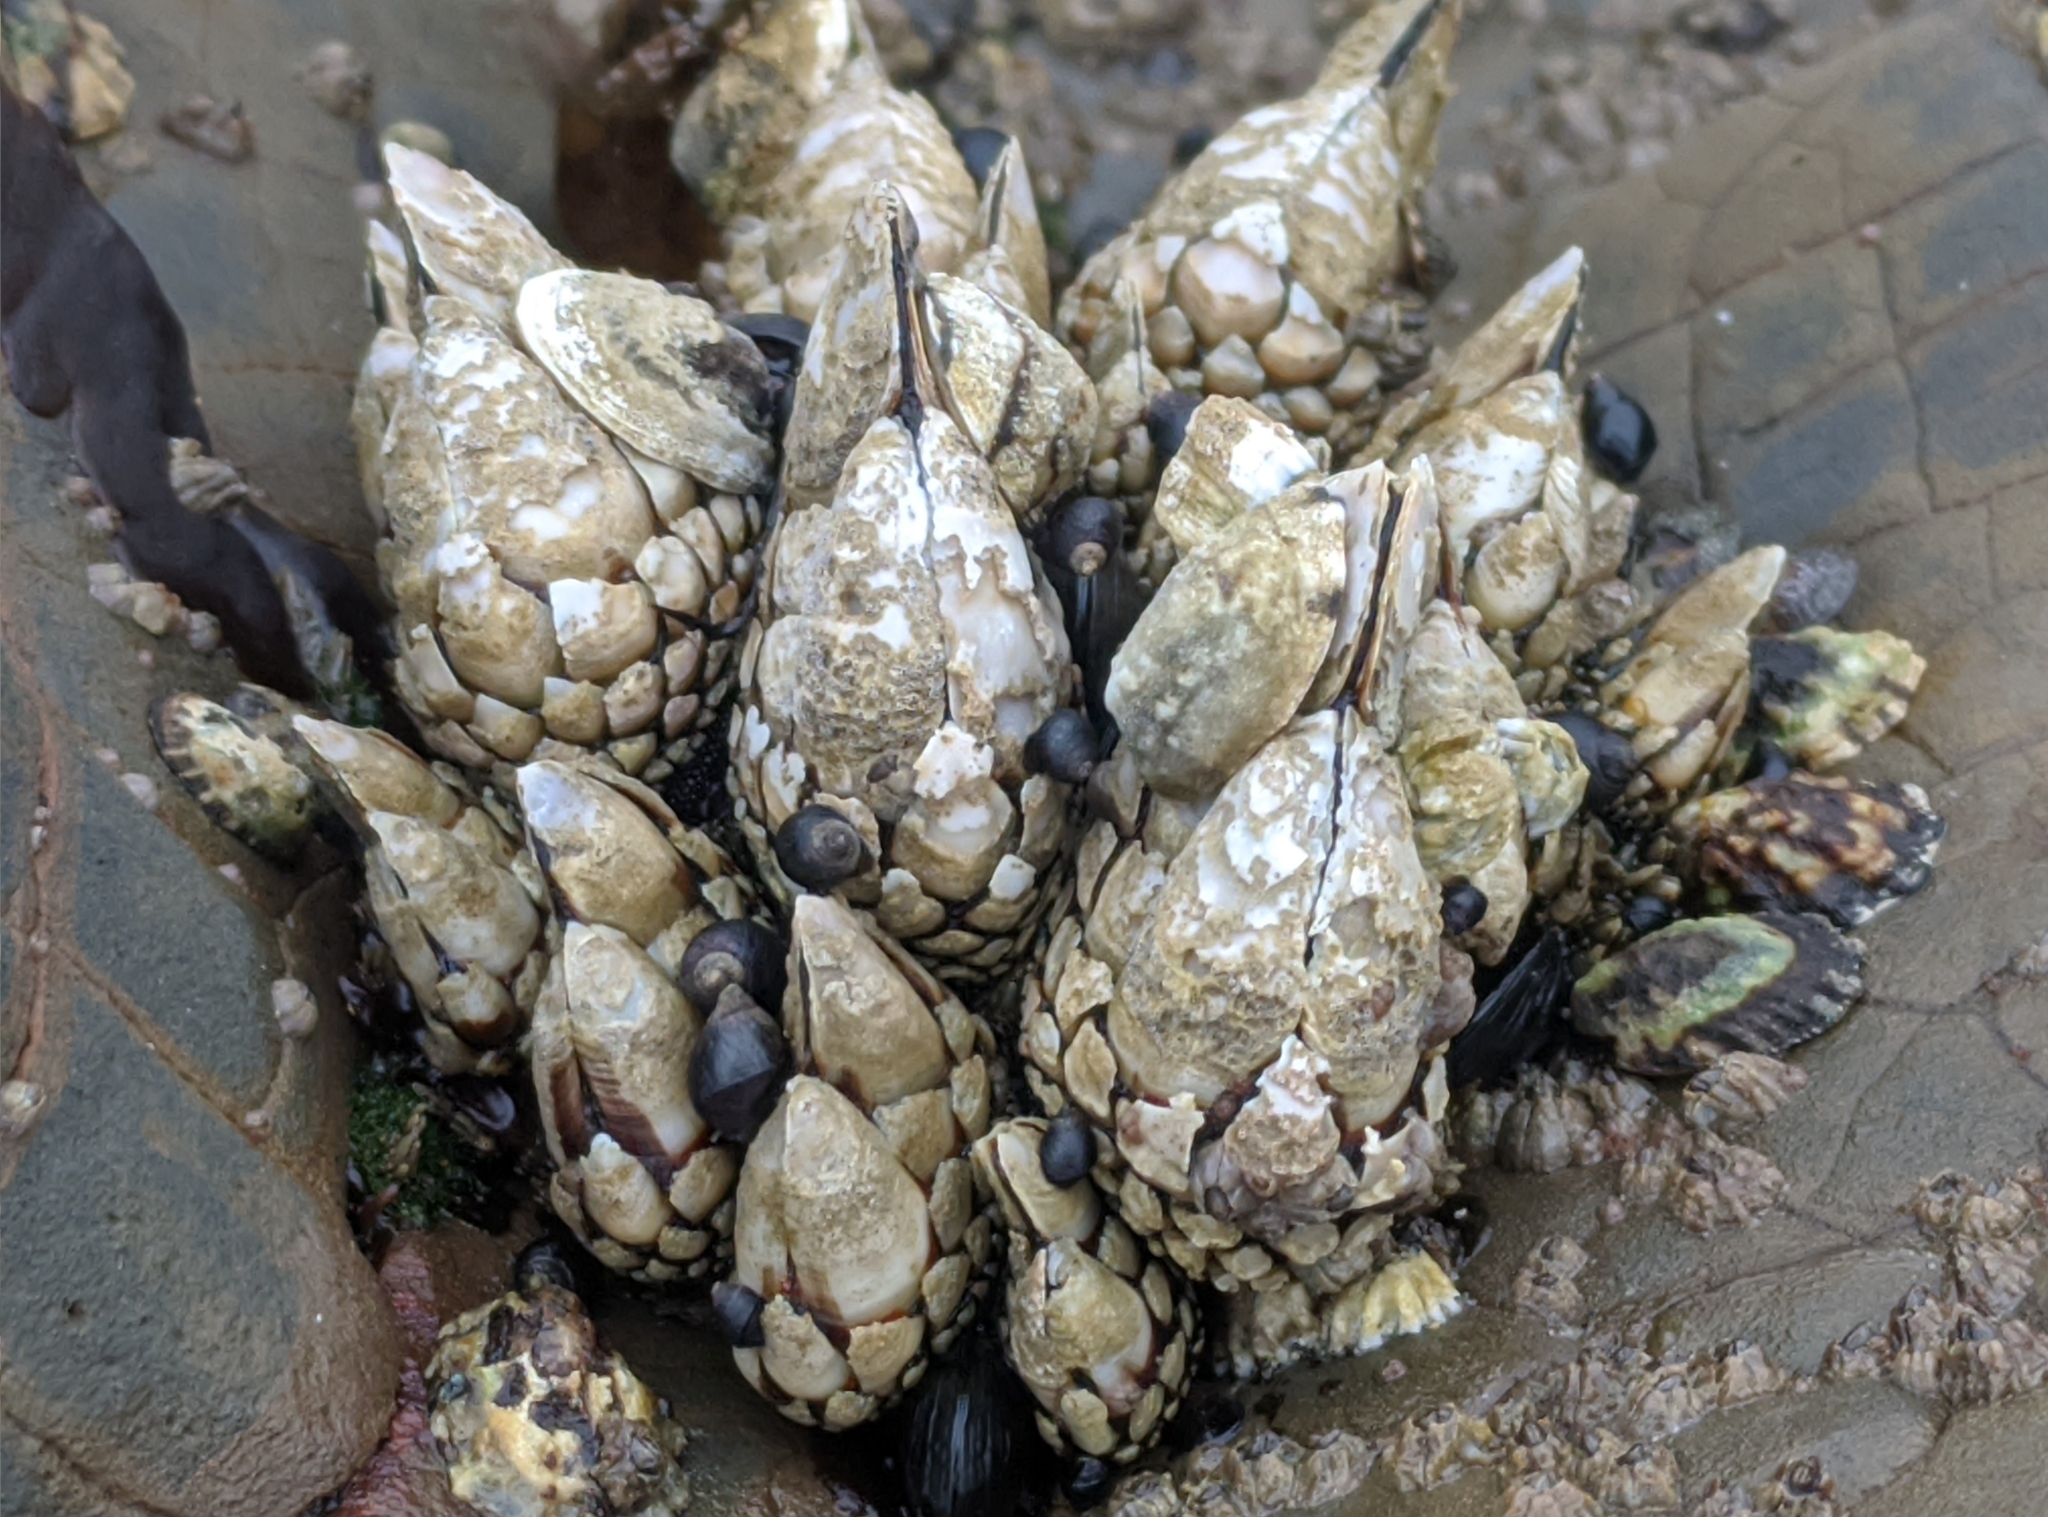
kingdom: Animalia
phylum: Arthropoda
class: Maxillopoda
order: Pedunculata
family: Pollicipedidae
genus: Pollicipes
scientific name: Pollicipes polymerus
